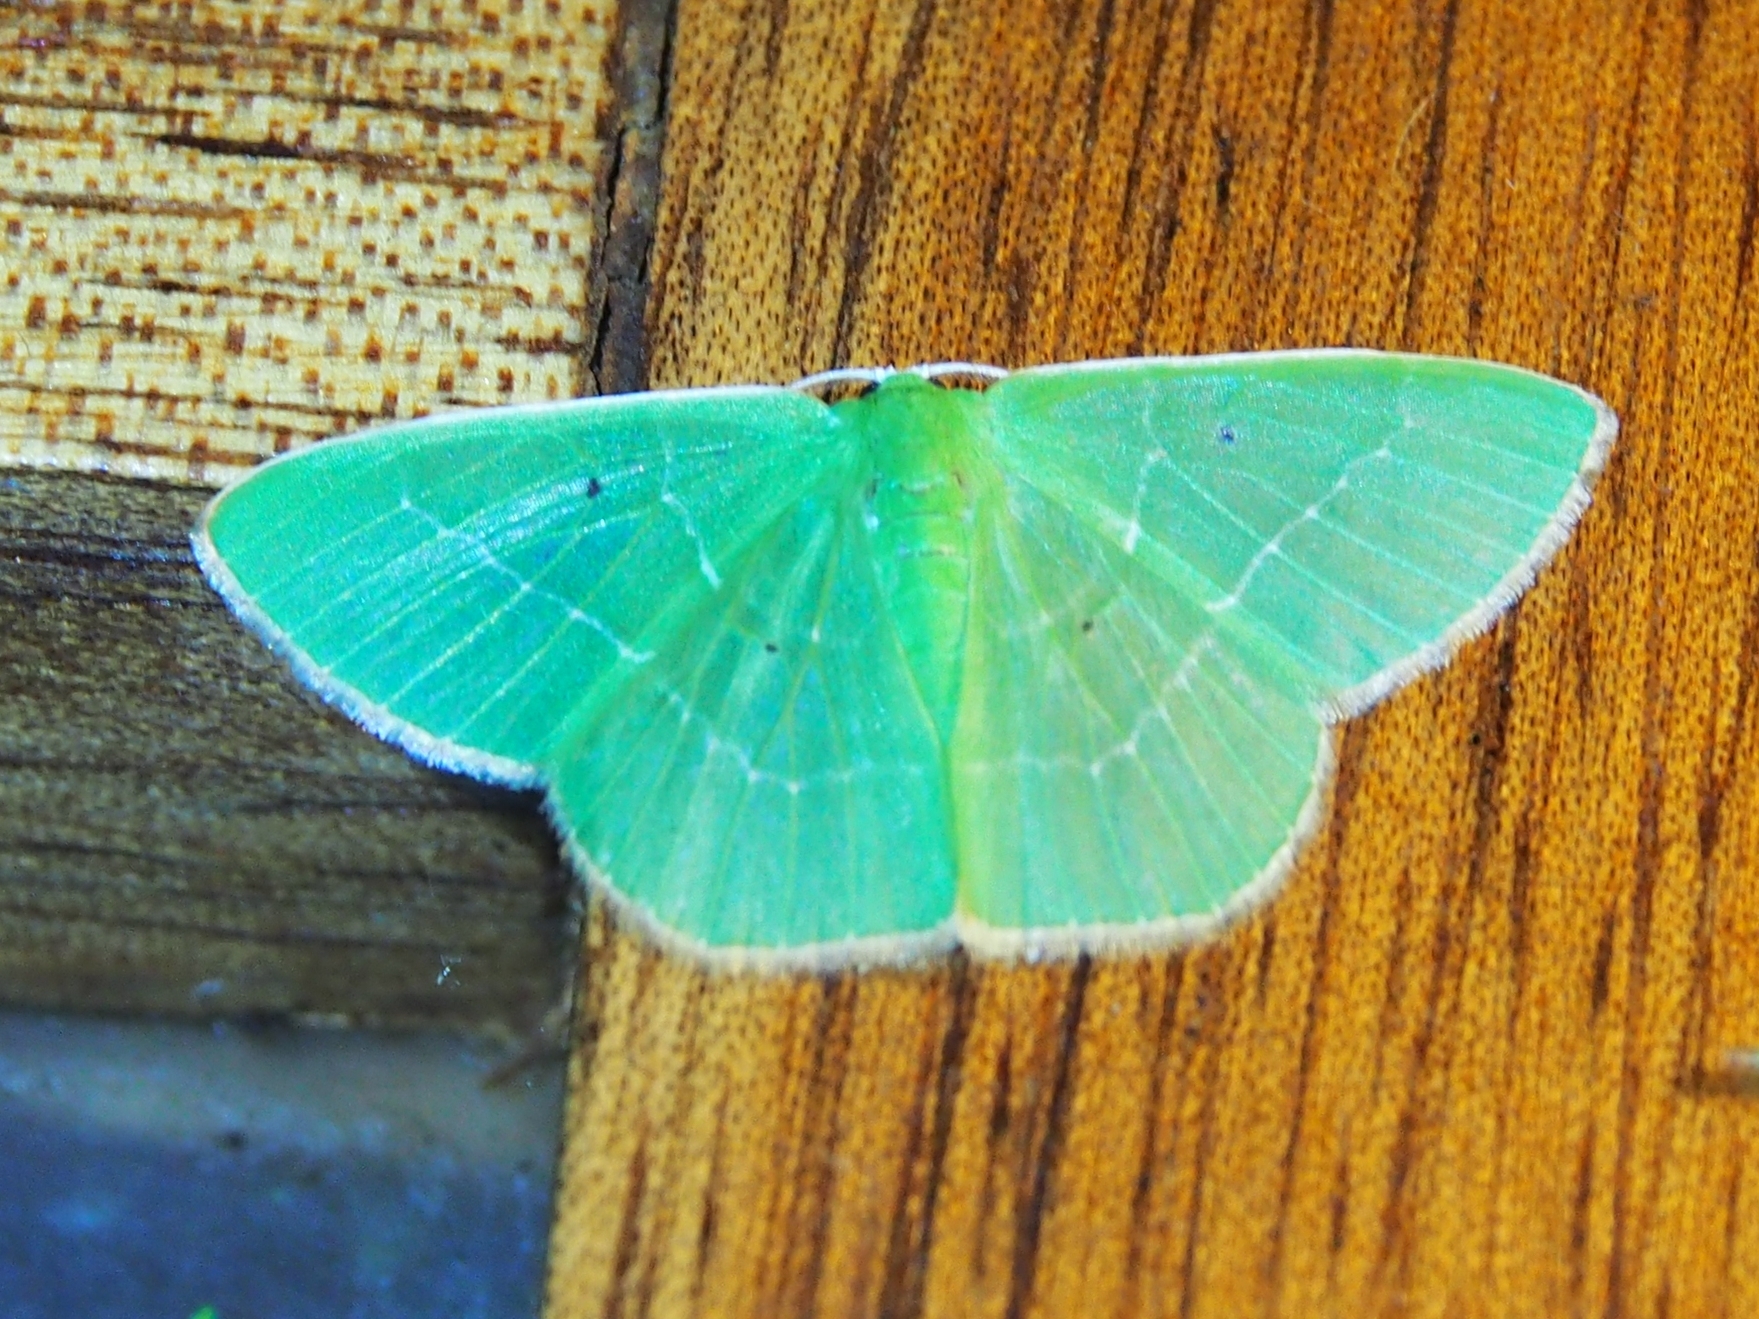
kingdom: Animalia
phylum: Arthropoda
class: Insecta
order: Lepidoptera
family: Geometridae
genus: Nemoria
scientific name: Nemoria remota
